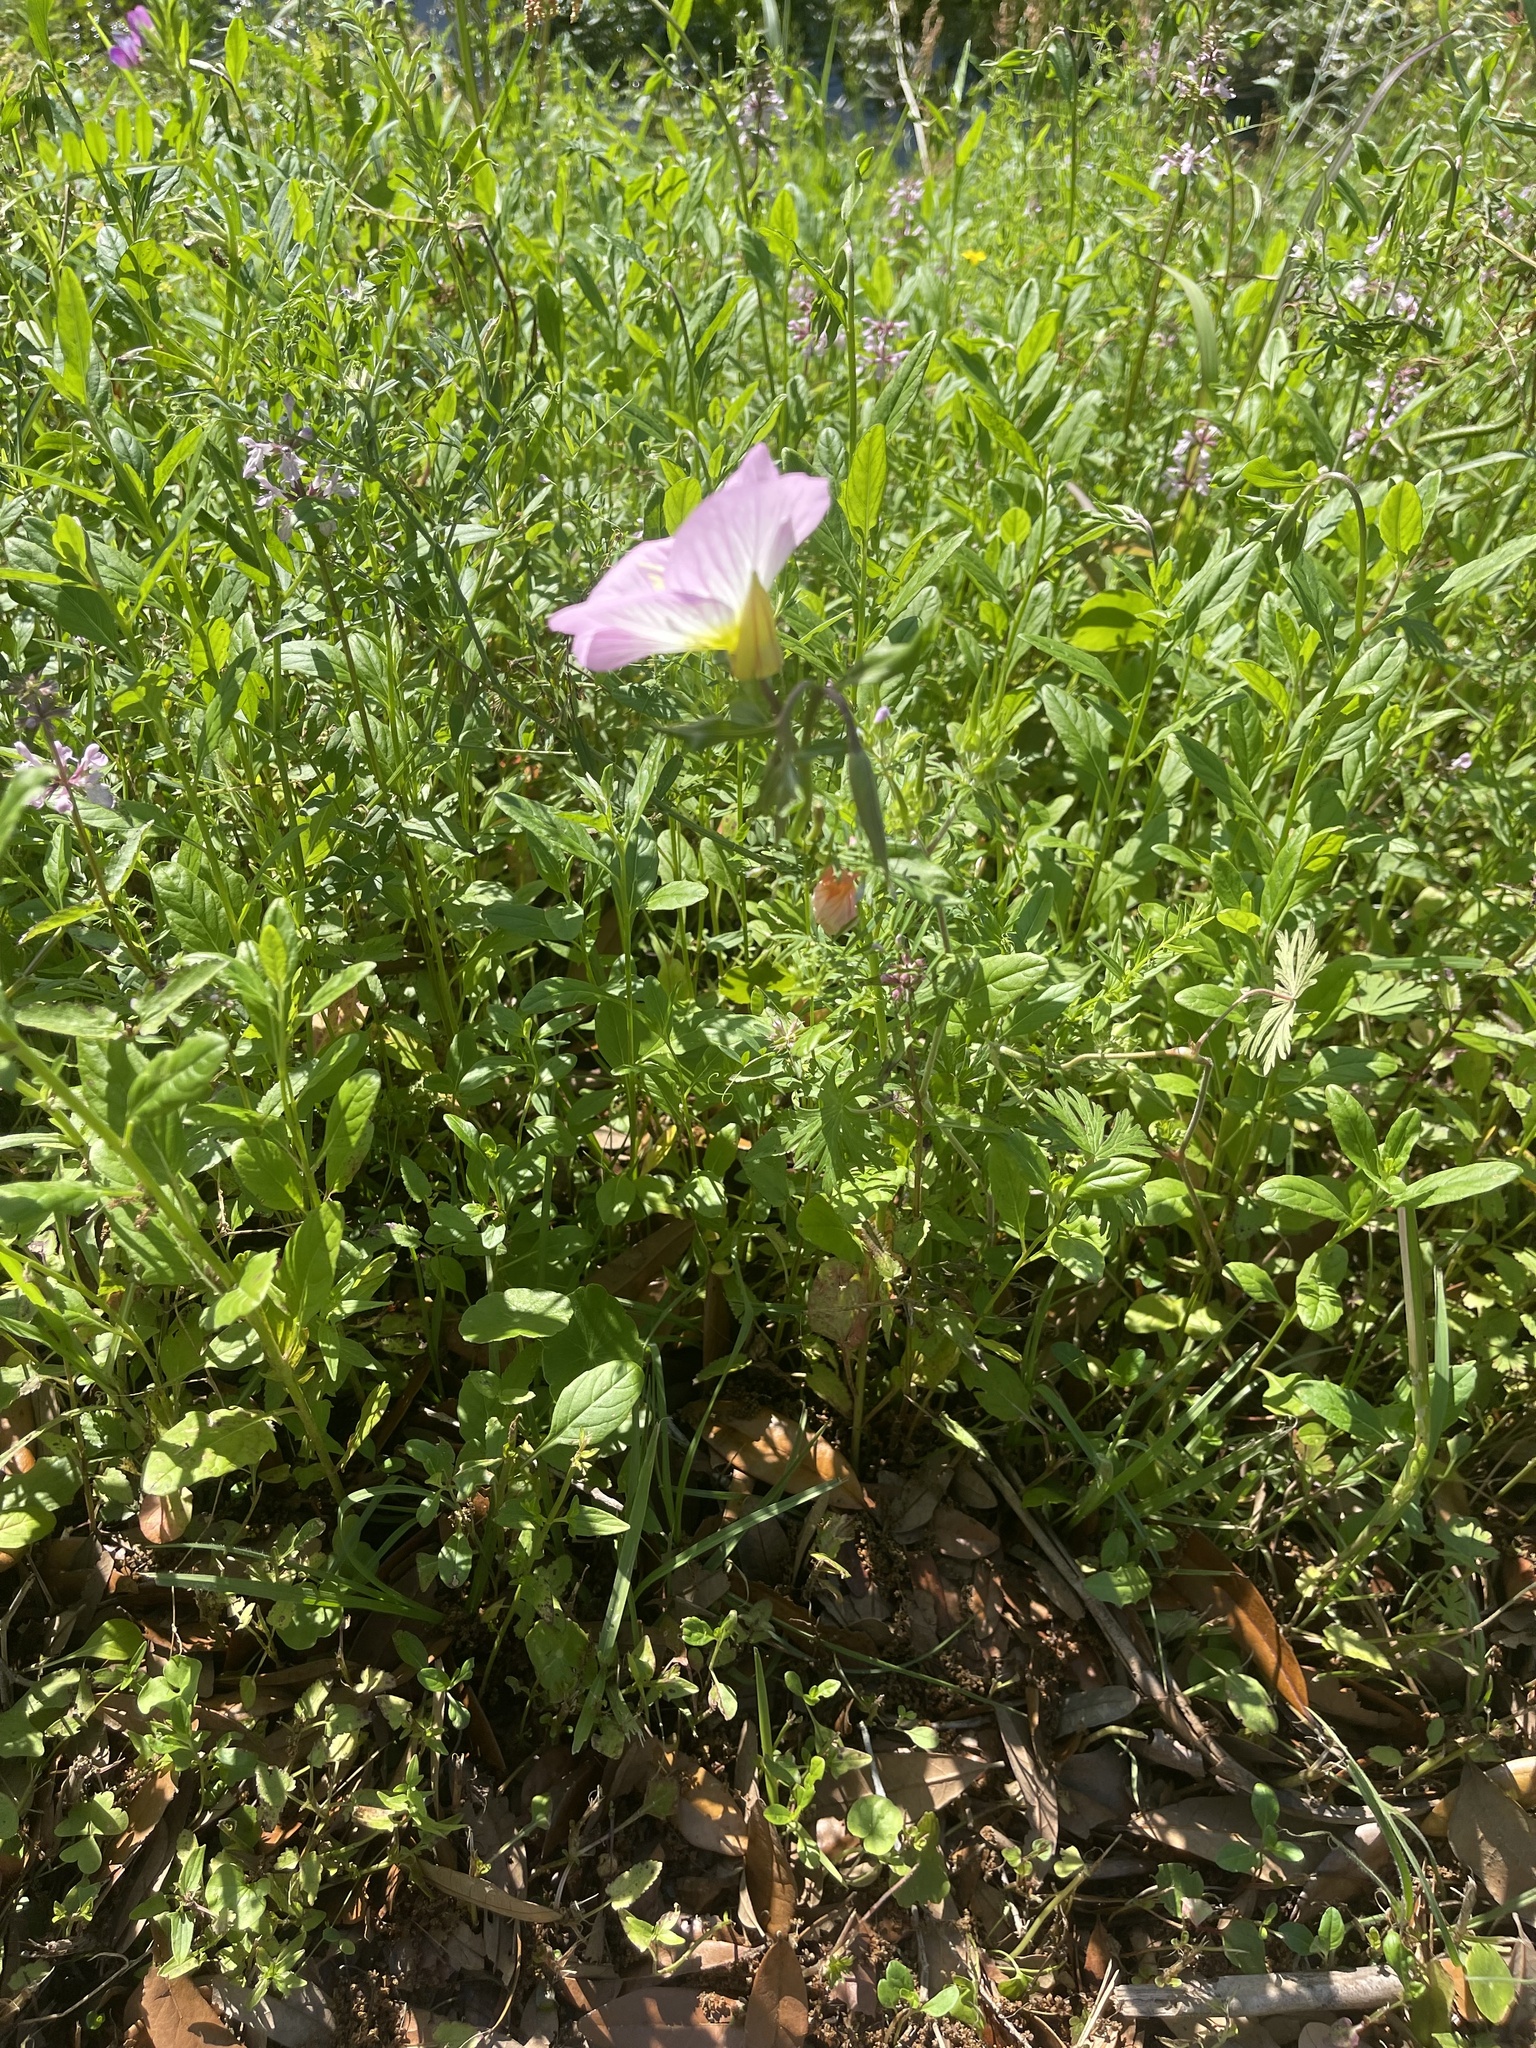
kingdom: Plantae
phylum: Tracheophyta
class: Magnoliopsida
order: Myrtales
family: Onagraceae
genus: Oenothera
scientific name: Oenothera speciosa
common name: White evening-primrose
